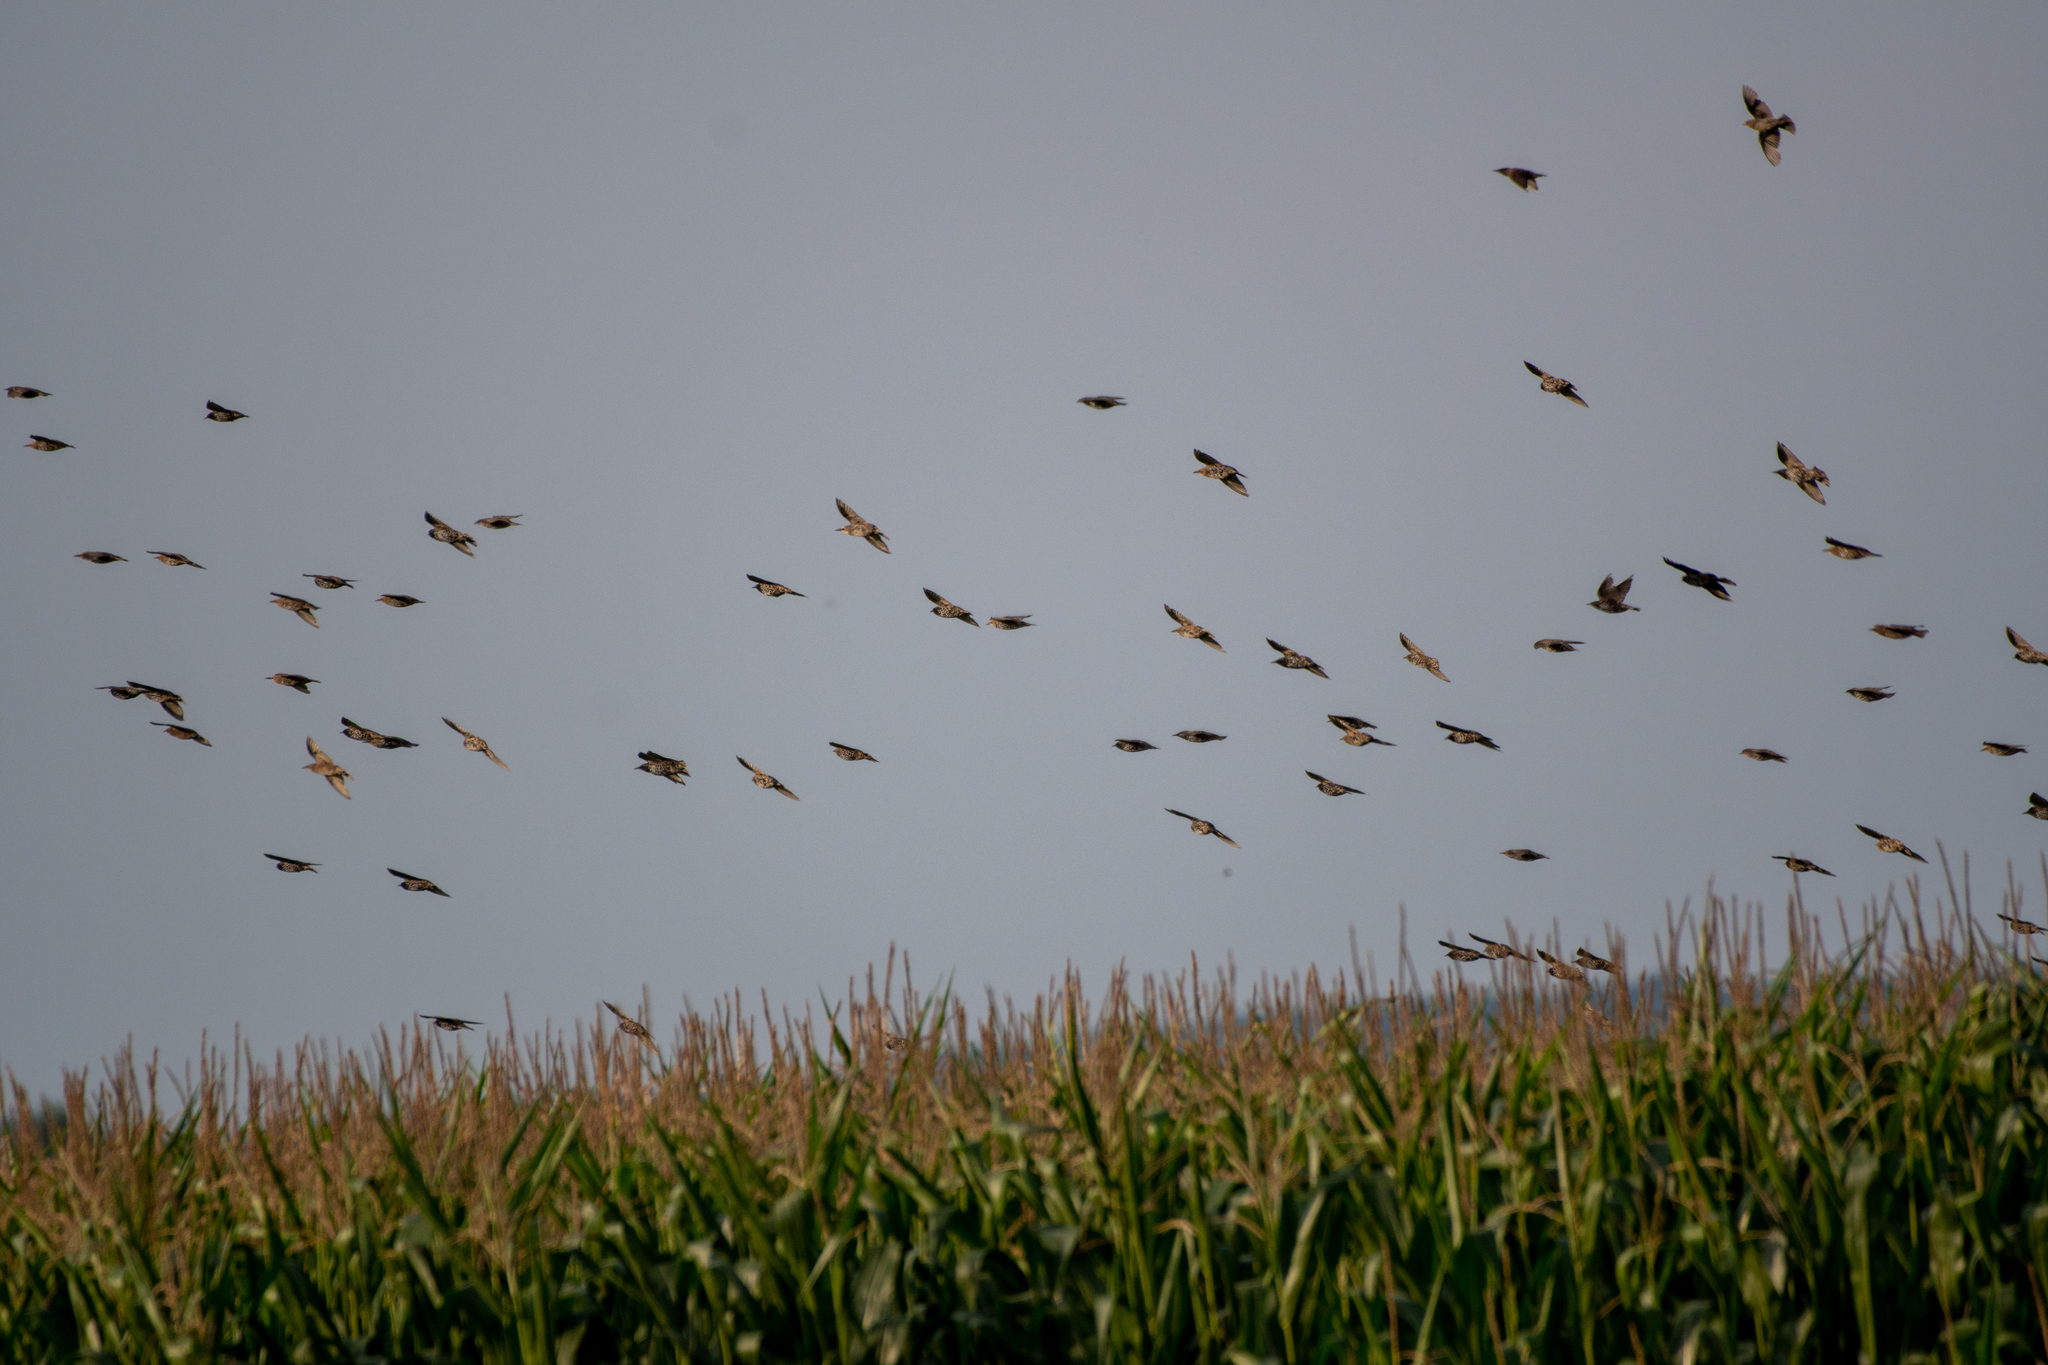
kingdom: Animalia
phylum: Chordata
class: Aves
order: Passeriformes
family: Sturnidae
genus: Sturnus
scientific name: Sturnus vulgaris
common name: Common starling
